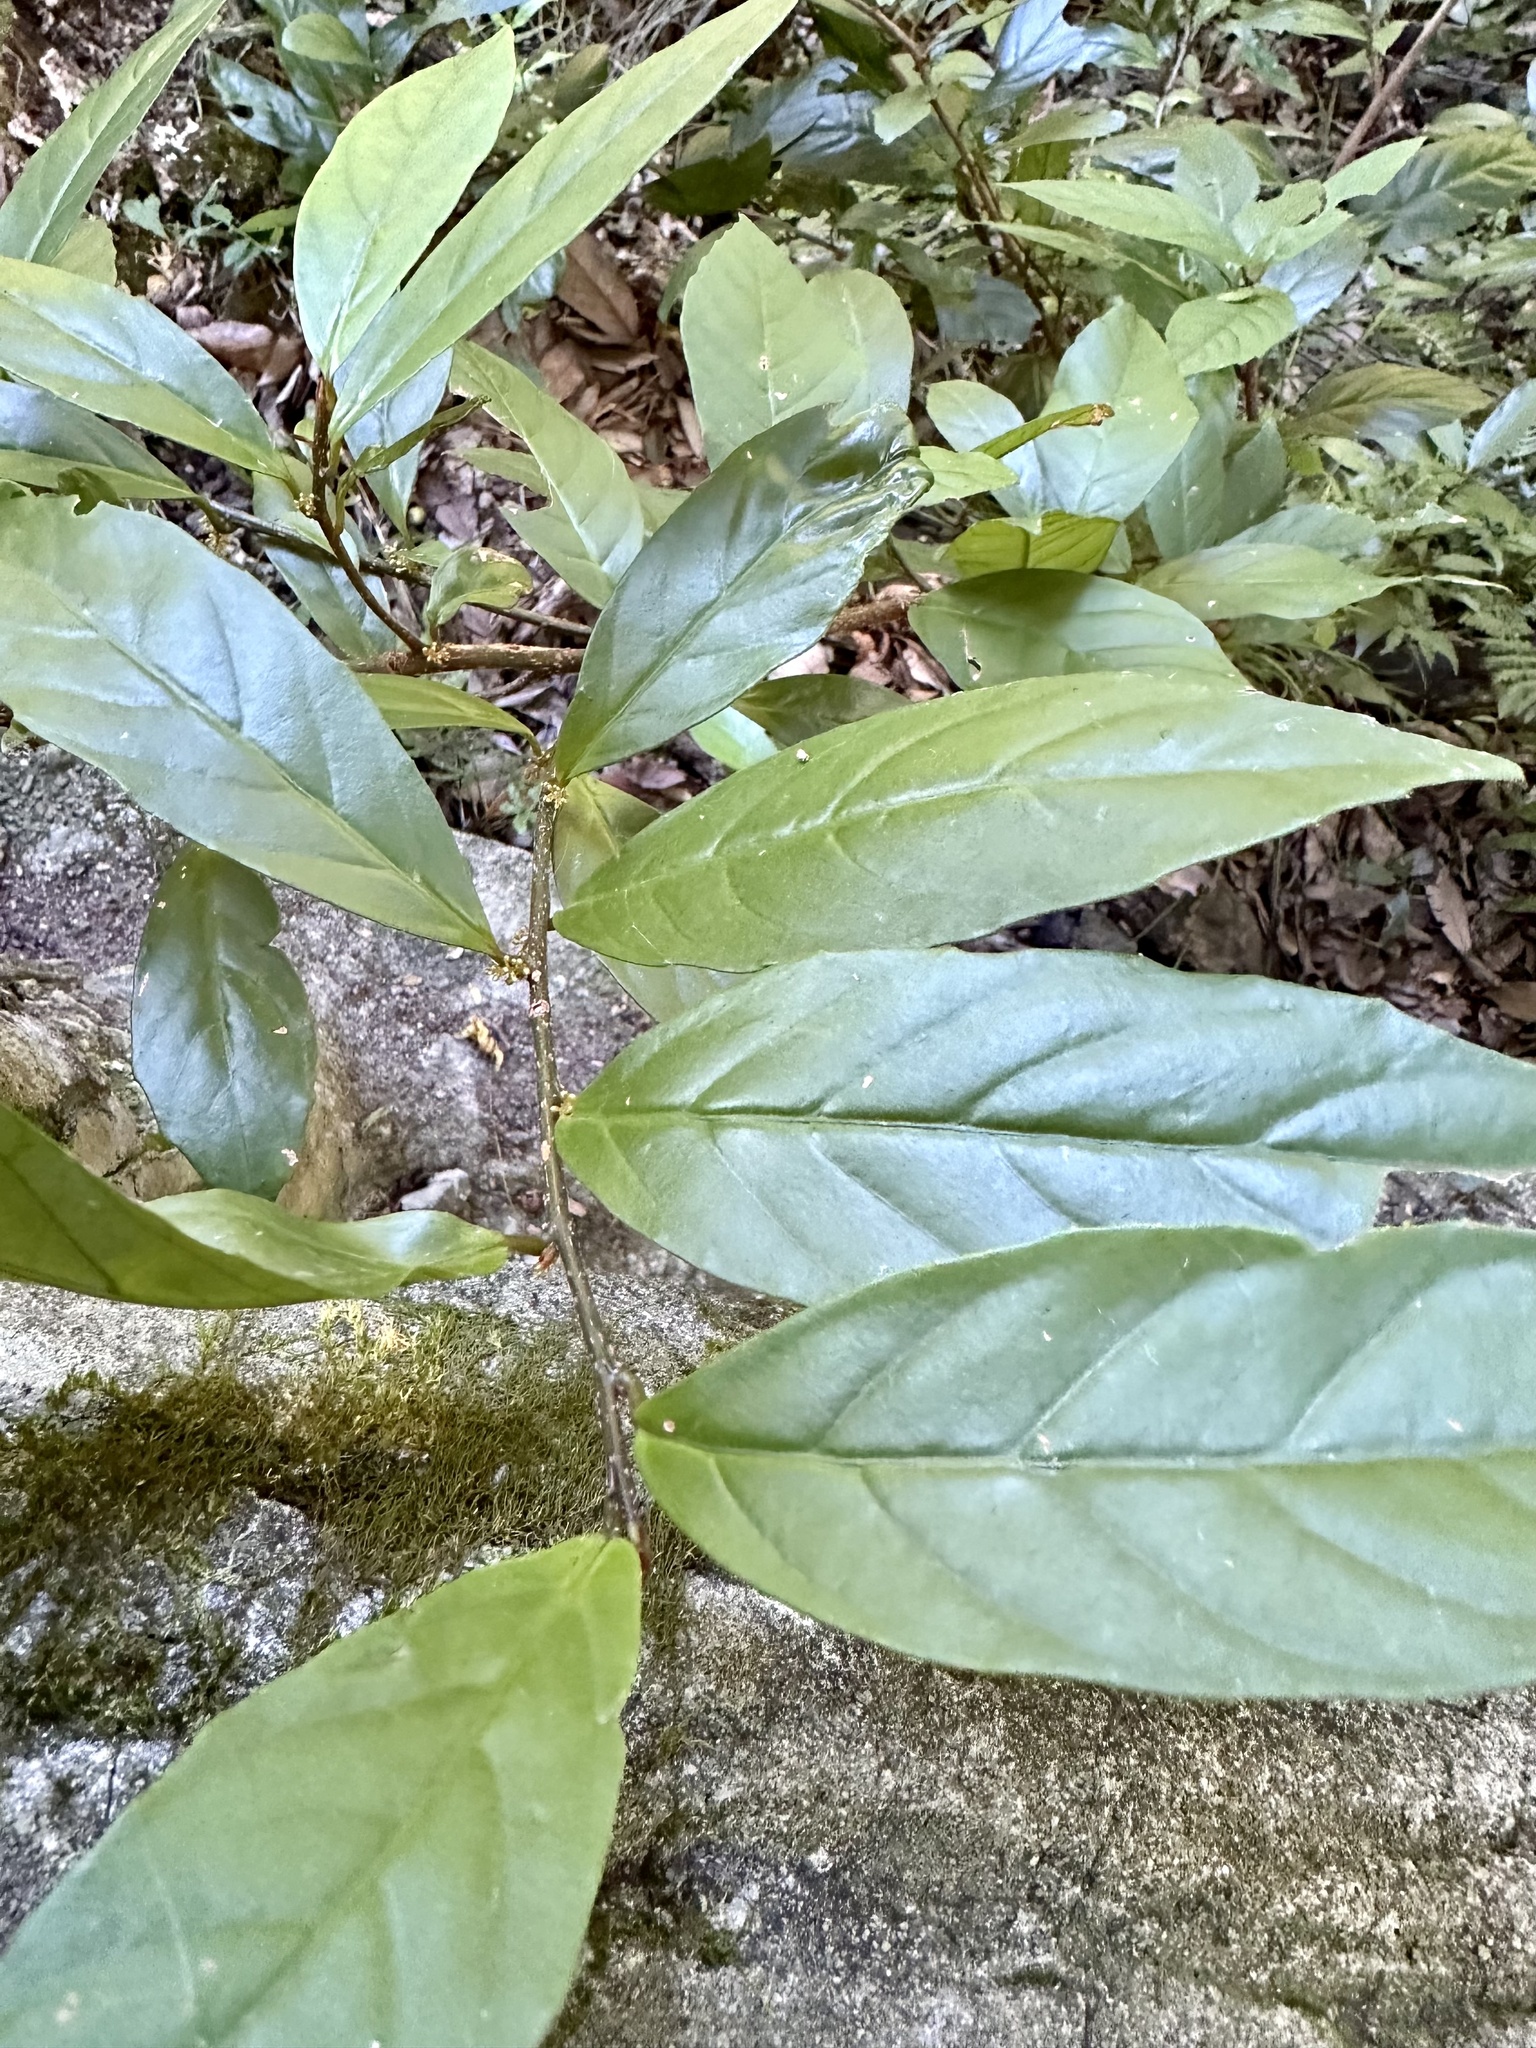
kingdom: Plantae
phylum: Tracheophyta
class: Magnoliopsida
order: Ericales
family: Primulaceae
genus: Maesa
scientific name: Maesa japonica
